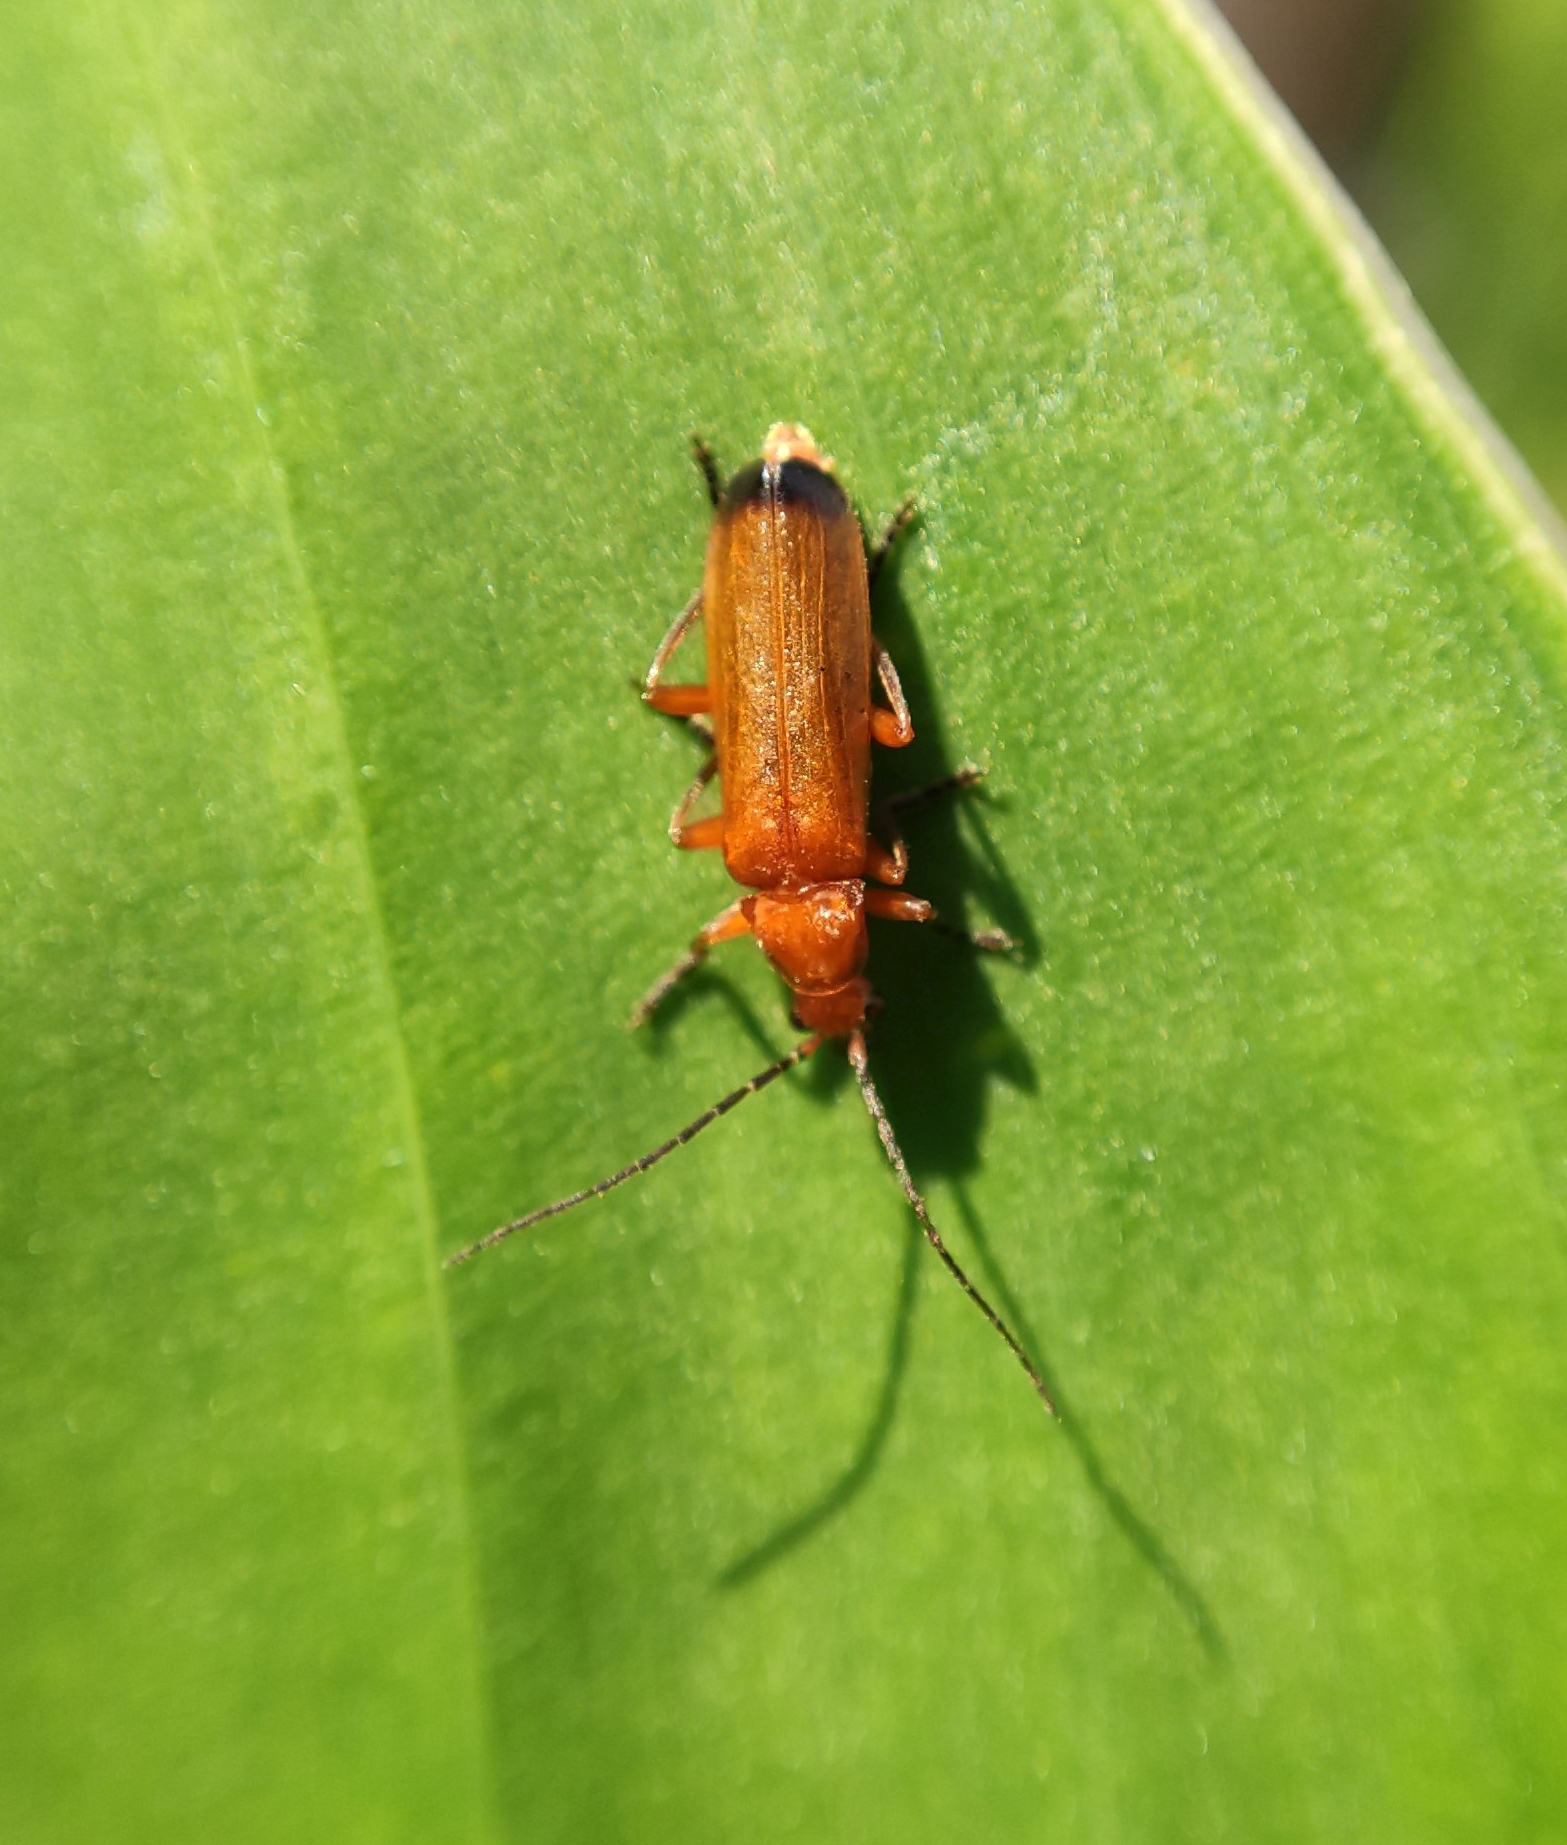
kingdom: Animalia
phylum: Arthropoda
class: Insecta
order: Coleoptera
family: Cantharidae
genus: Rhagonycha
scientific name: Rhagonycha fulva
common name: Common red soldier beetle
